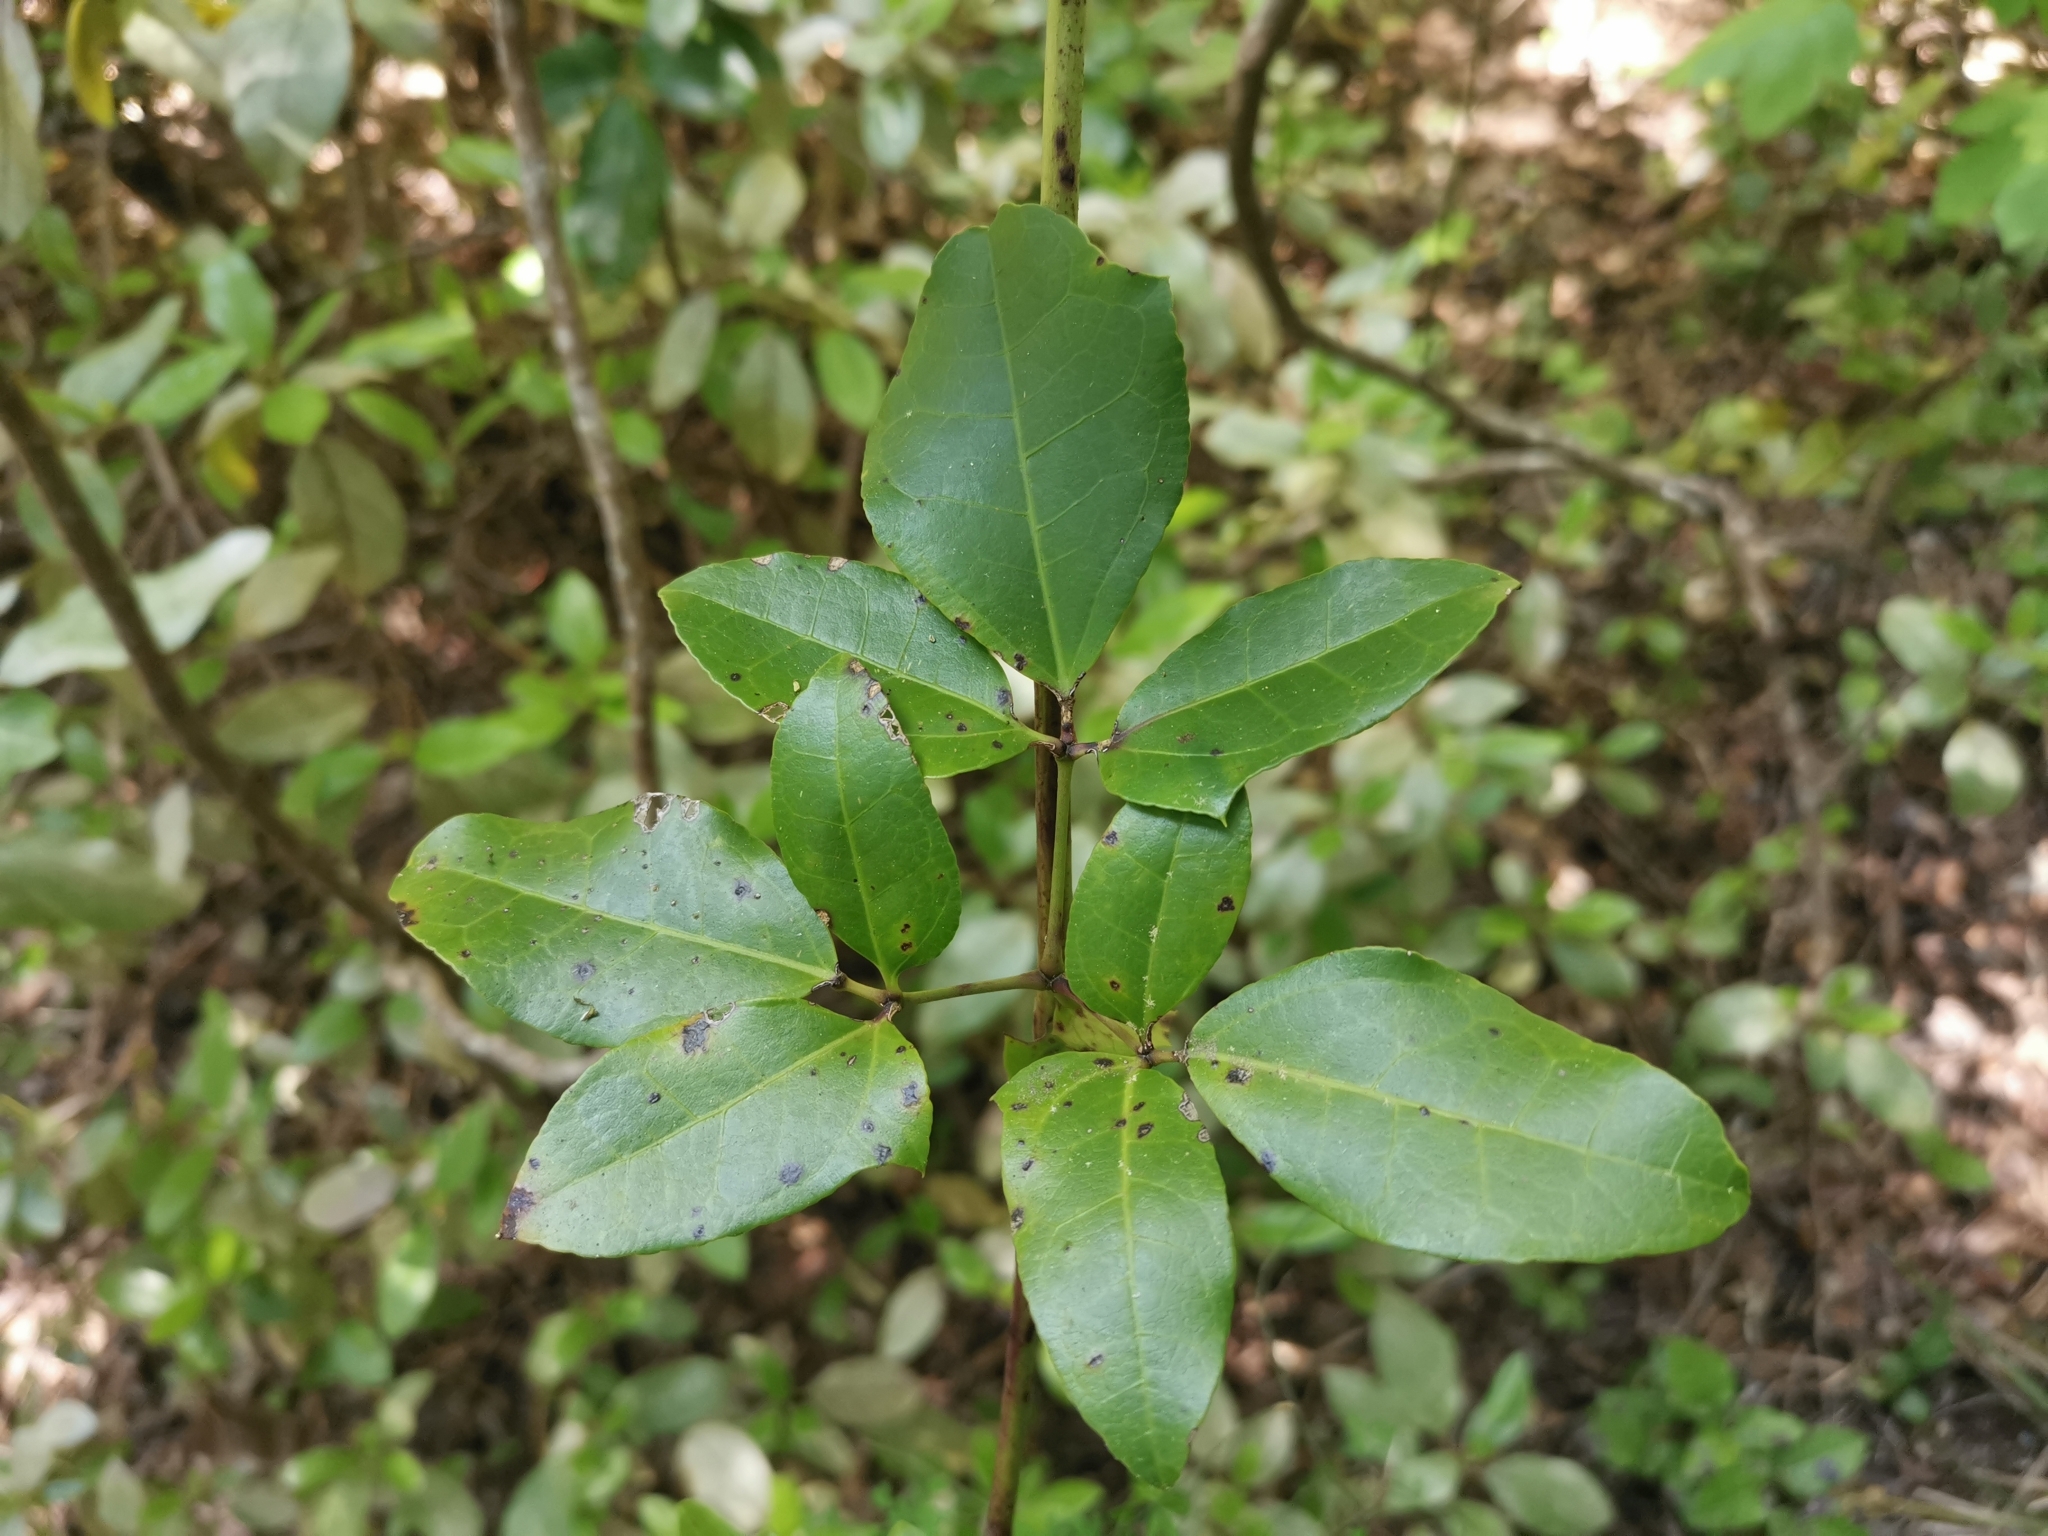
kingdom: Plantae
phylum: Tracheophyta
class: Magnoliopsida
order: Ranunculales
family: Lardizabalaceae
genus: Lardizabala
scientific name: Lardizabala funaria
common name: Zabala
